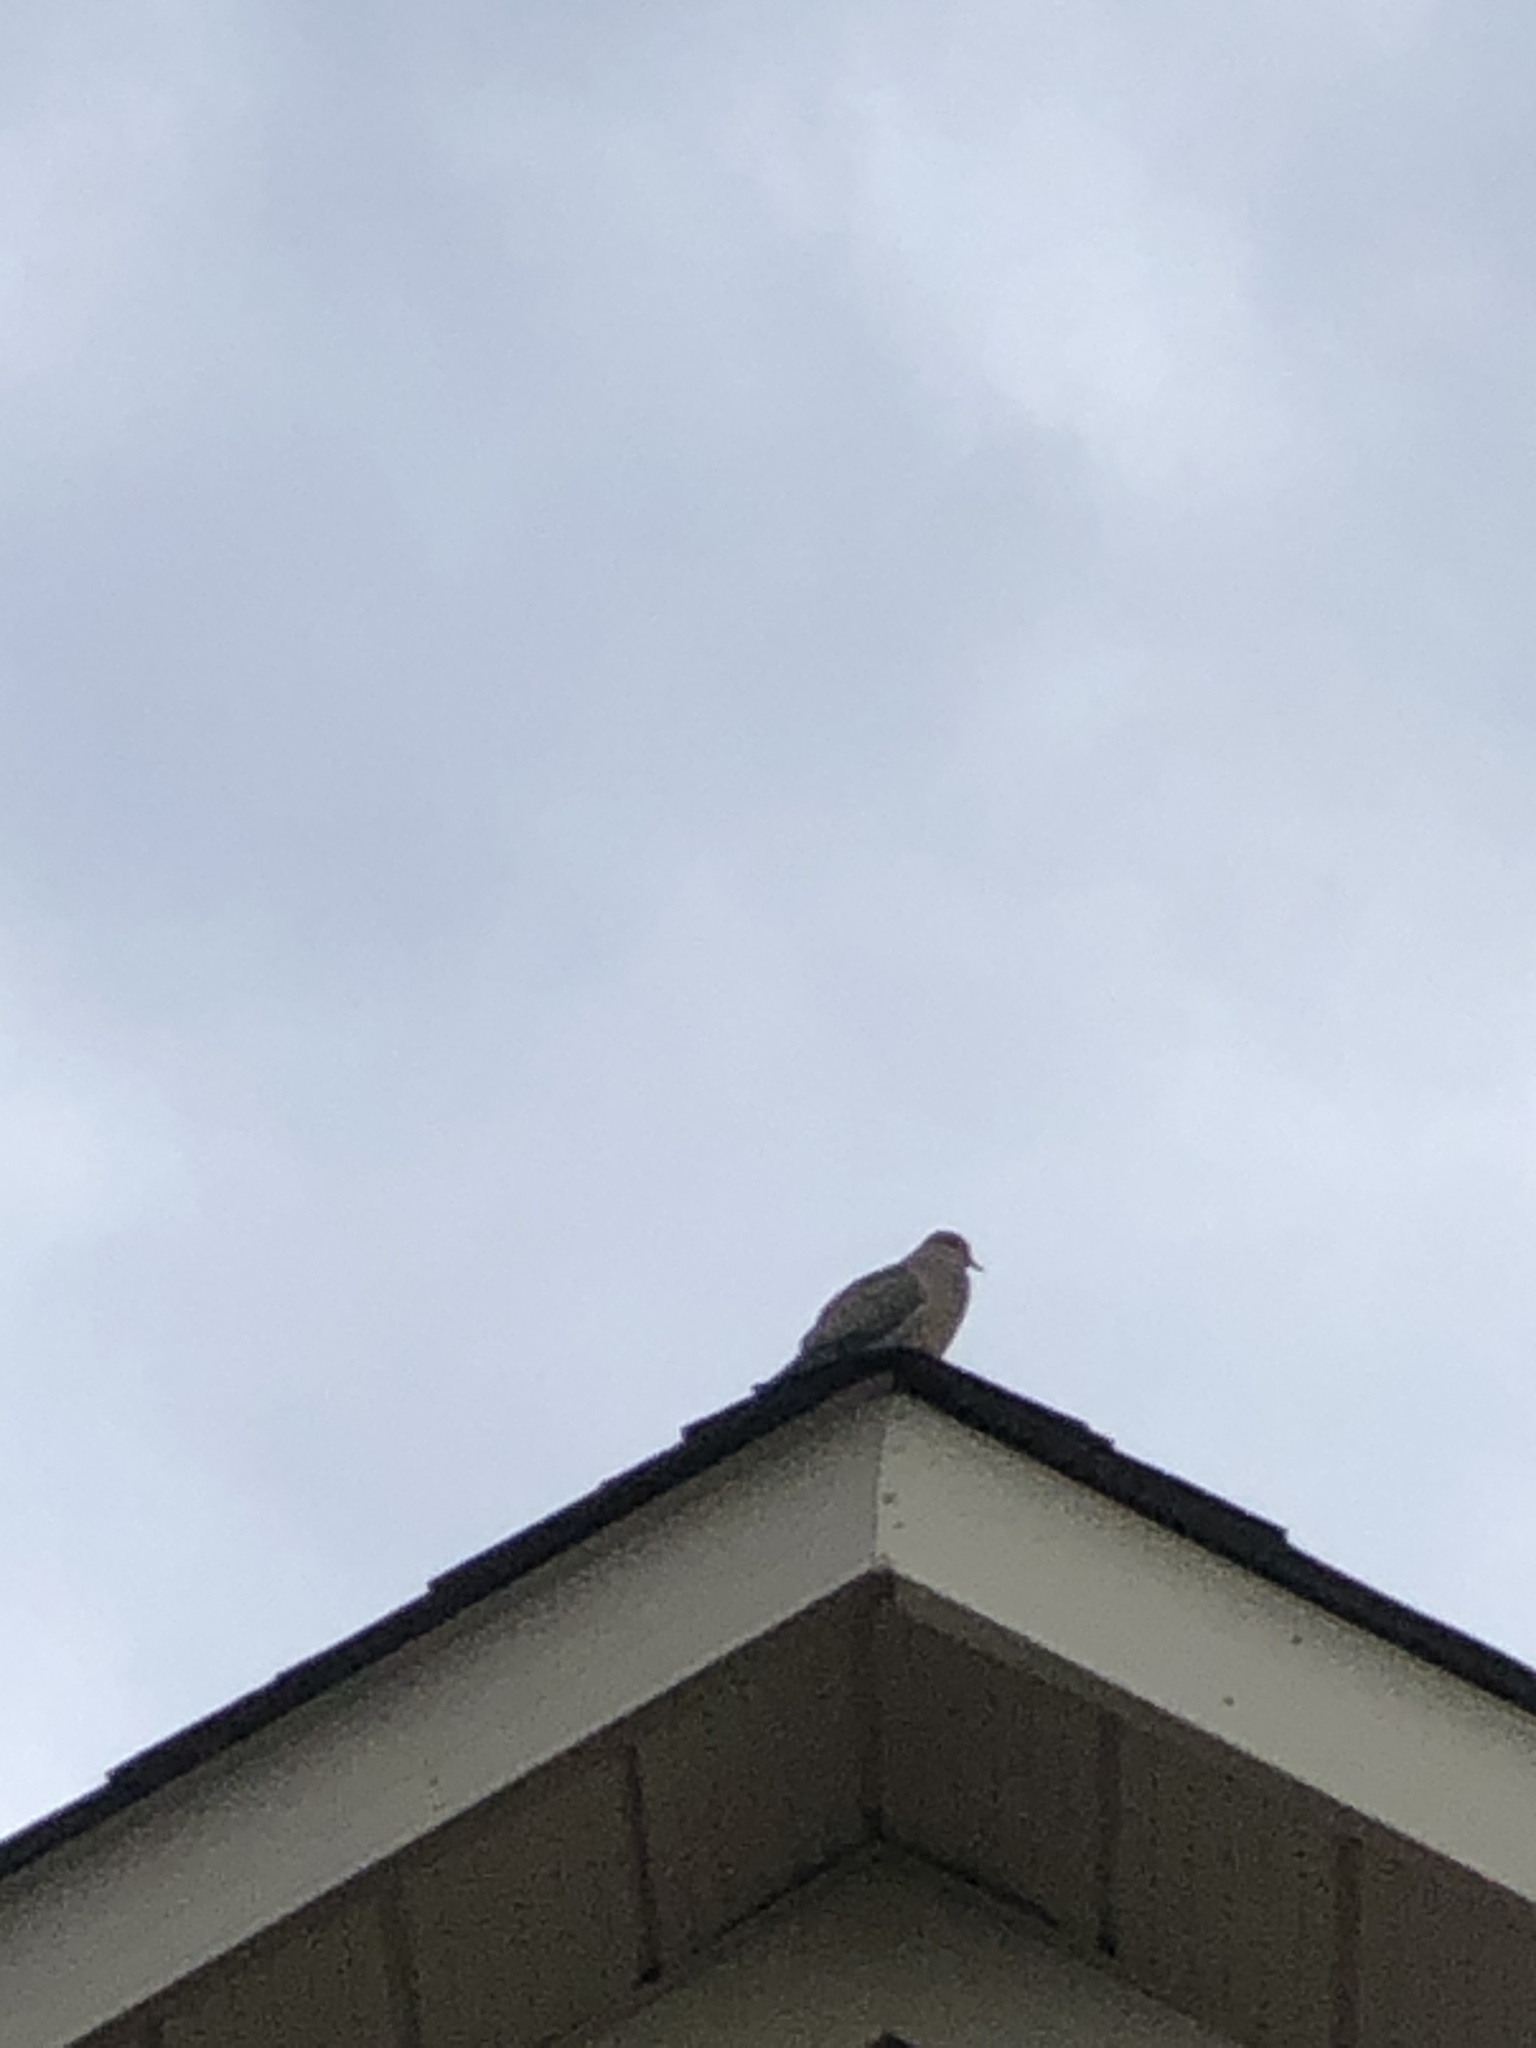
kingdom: Animalia
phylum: Chordata
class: Aves
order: Columbiformes
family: Columbidae
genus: Zenaida
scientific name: Zenaida macroura
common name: Mourning dove
